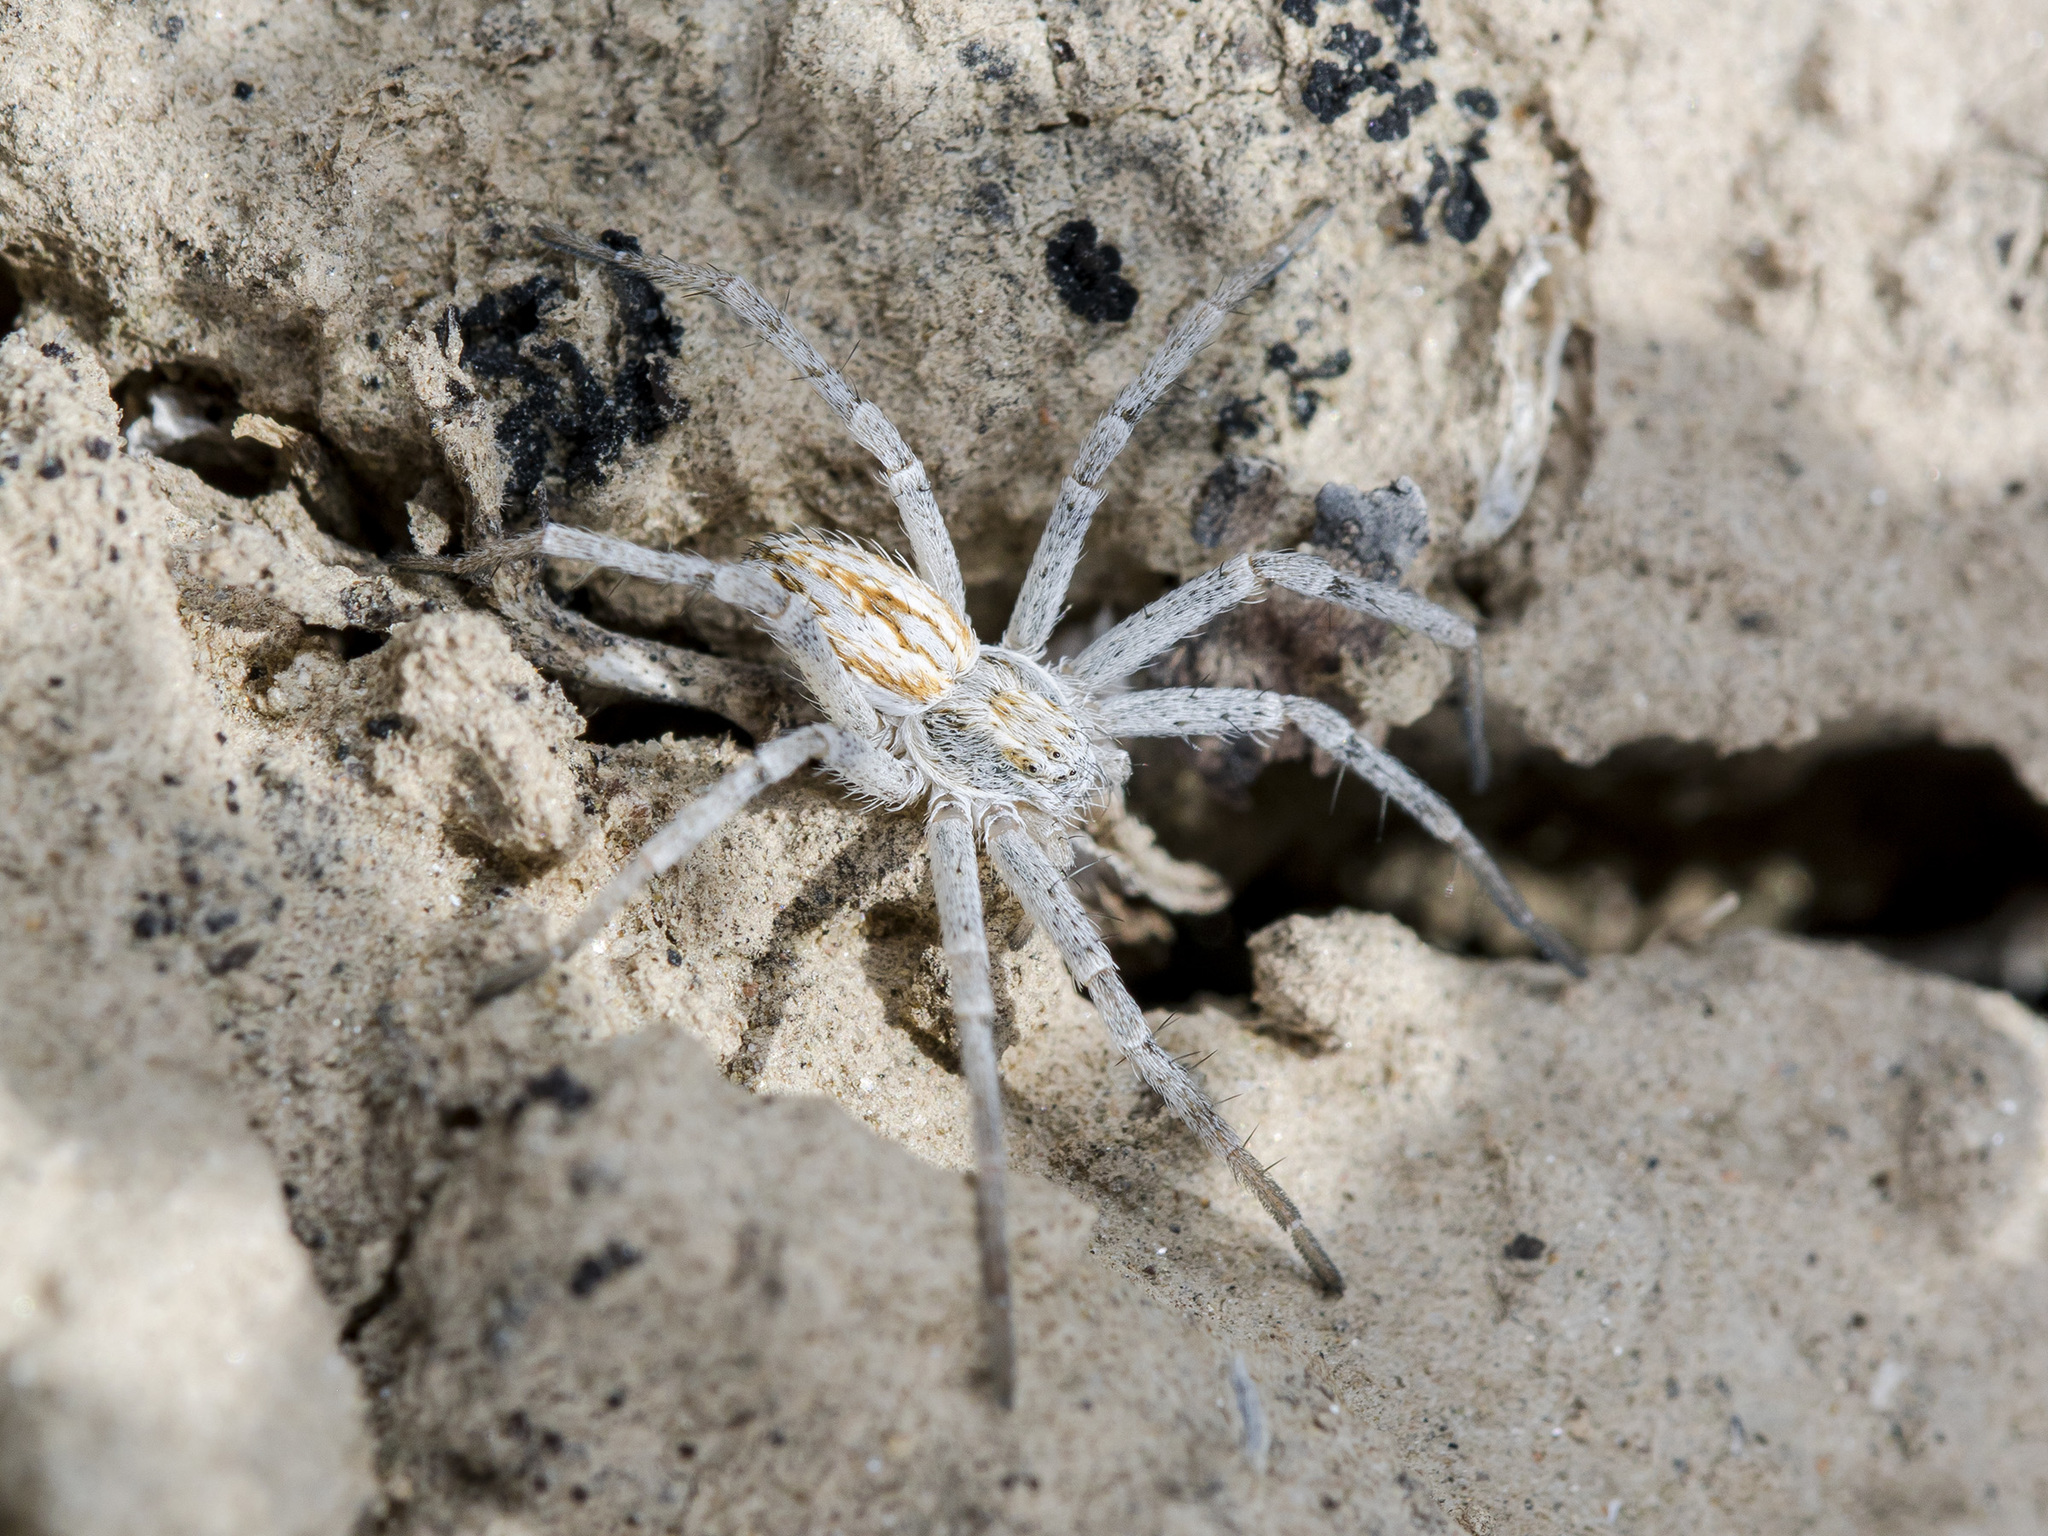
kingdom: Animalia
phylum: Arthropoda
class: Arachnida
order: Araneae
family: Philodromidae
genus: Thanatus
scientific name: Thanatus fabricii
